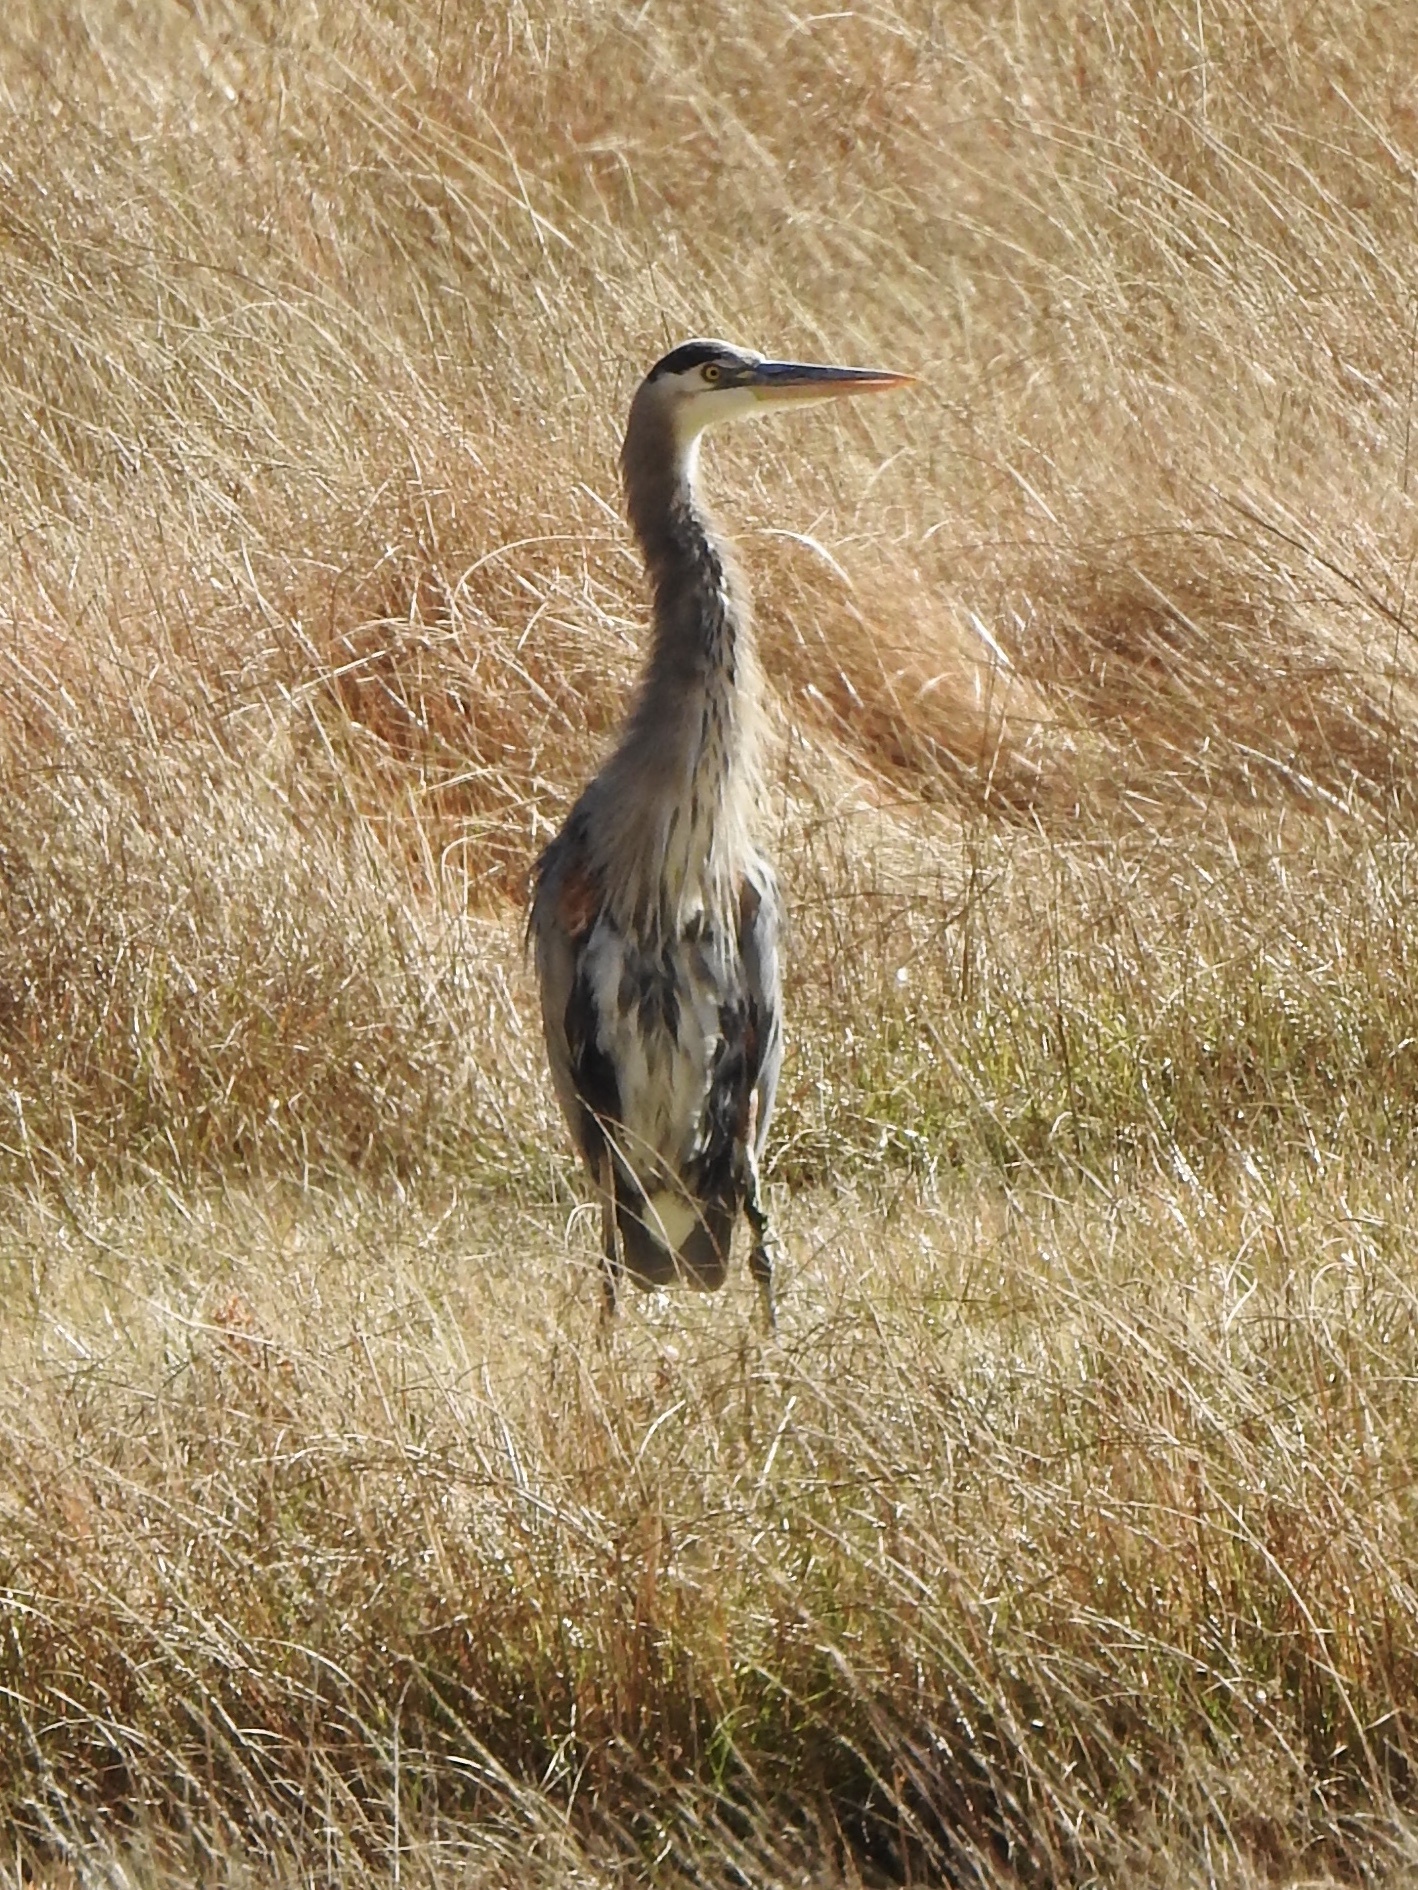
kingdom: Animalia
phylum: Chordata
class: Aves
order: Pelecaniformes
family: Ardeidae
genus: Ardea
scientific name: Ardea herodias
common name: Great blue heron
